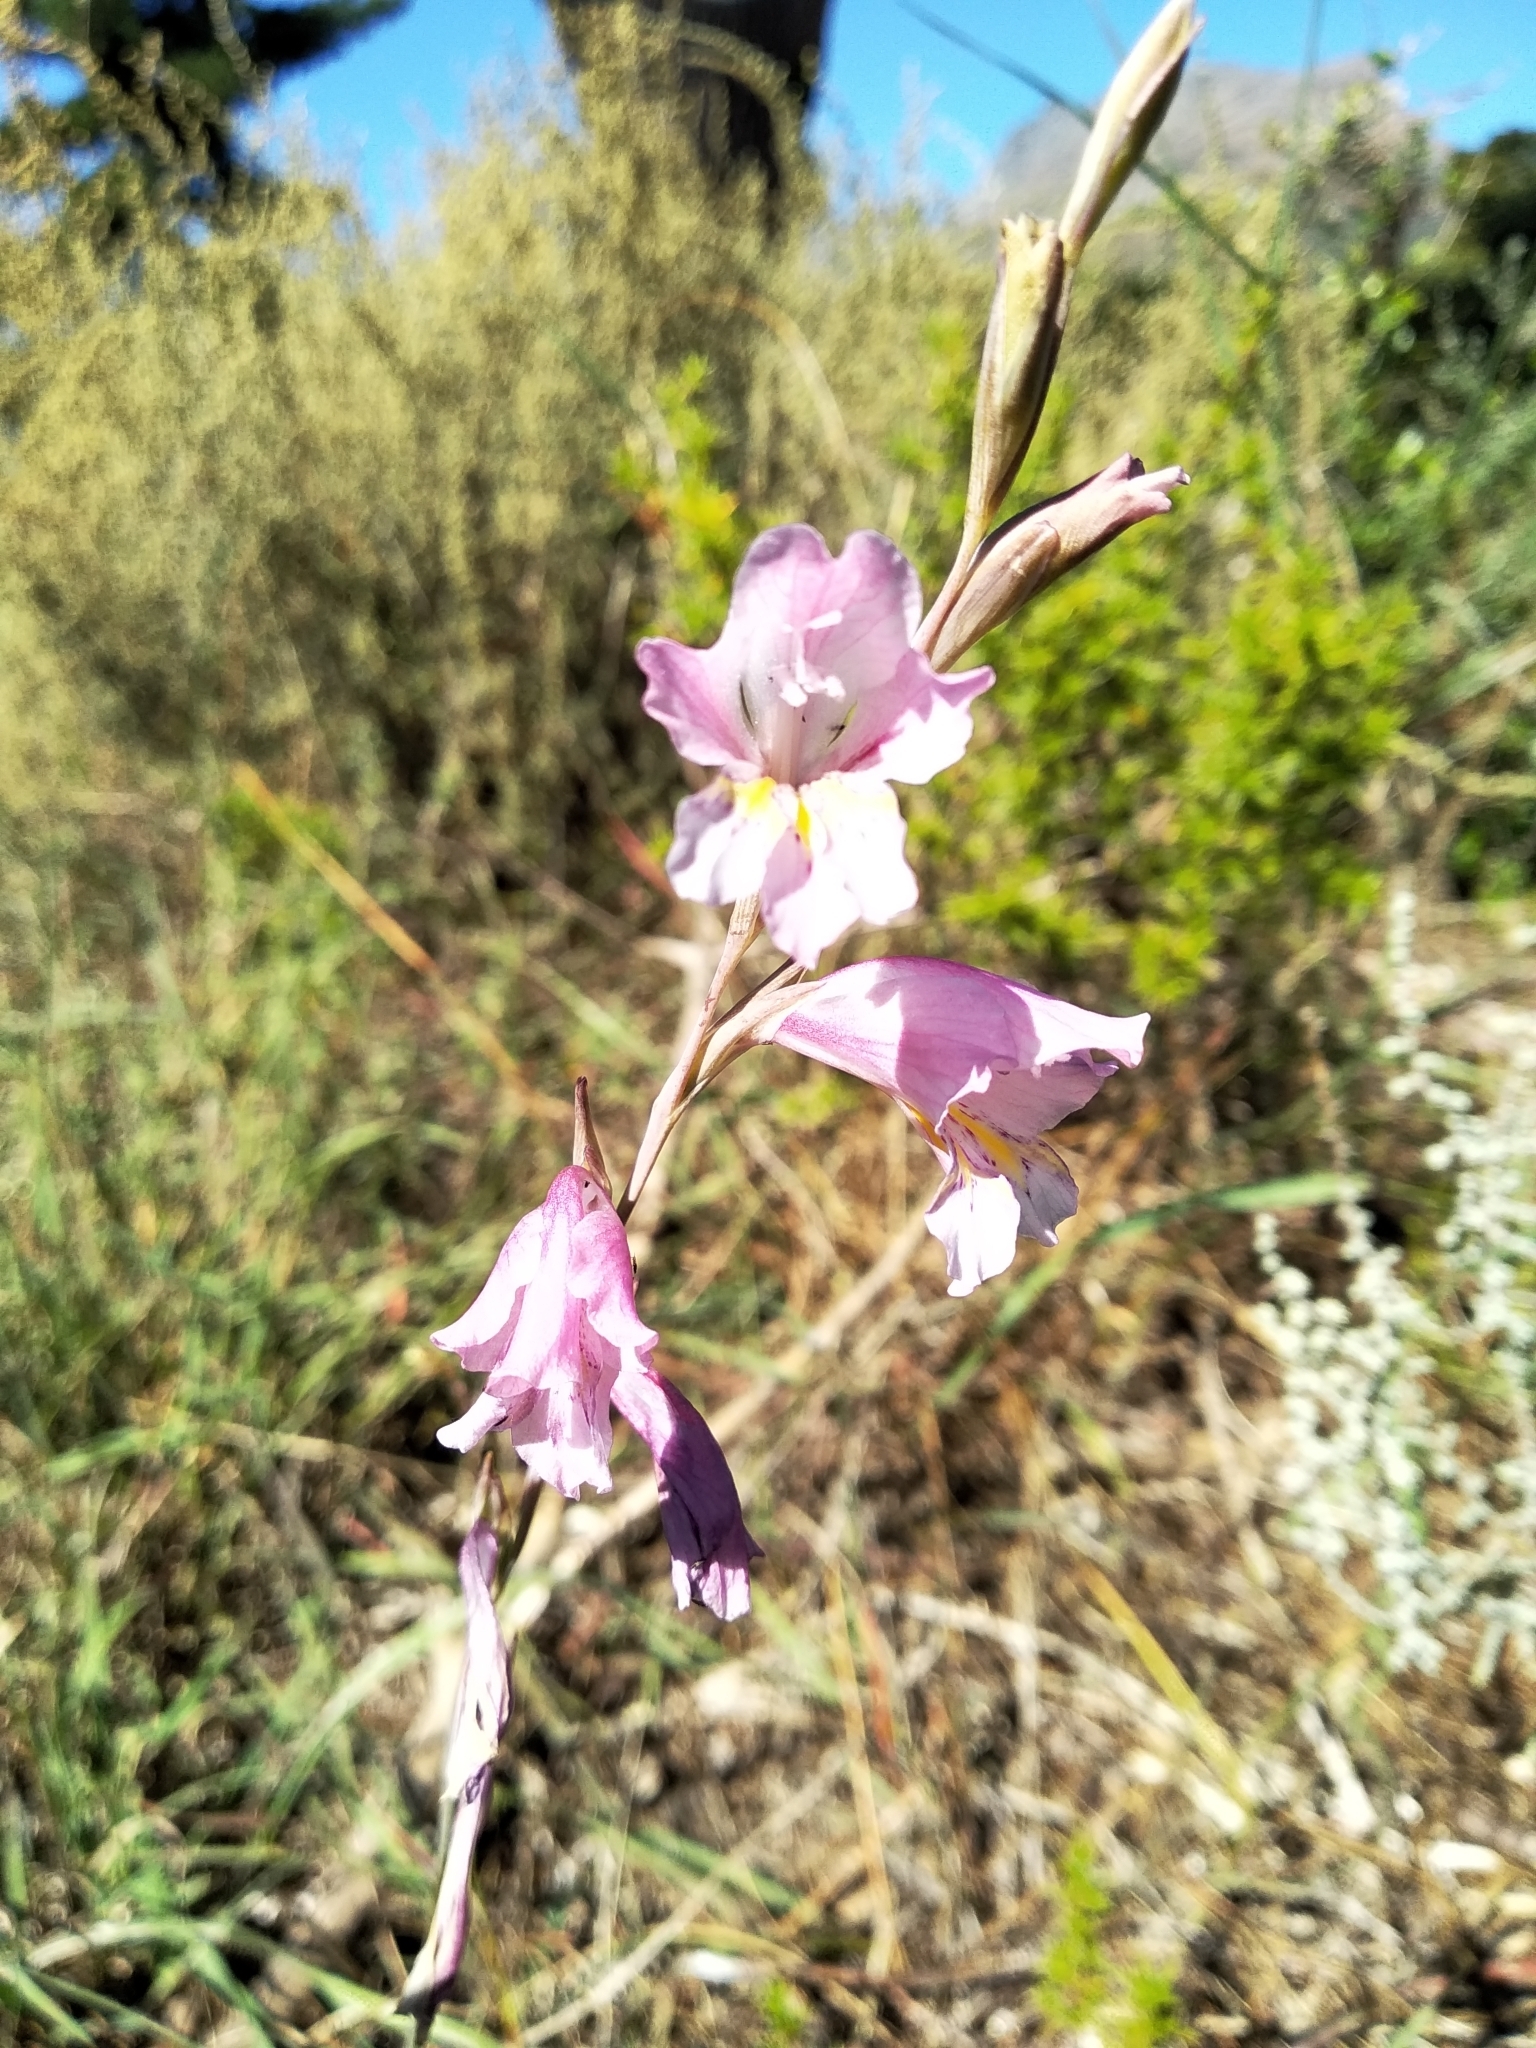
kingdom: Plantae
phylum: Tracheophyta
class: Liliopsida
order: Asparagales
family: Iridaceae
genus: Gladiolus
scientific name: Gladiolus brevifolius
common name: March pypie
